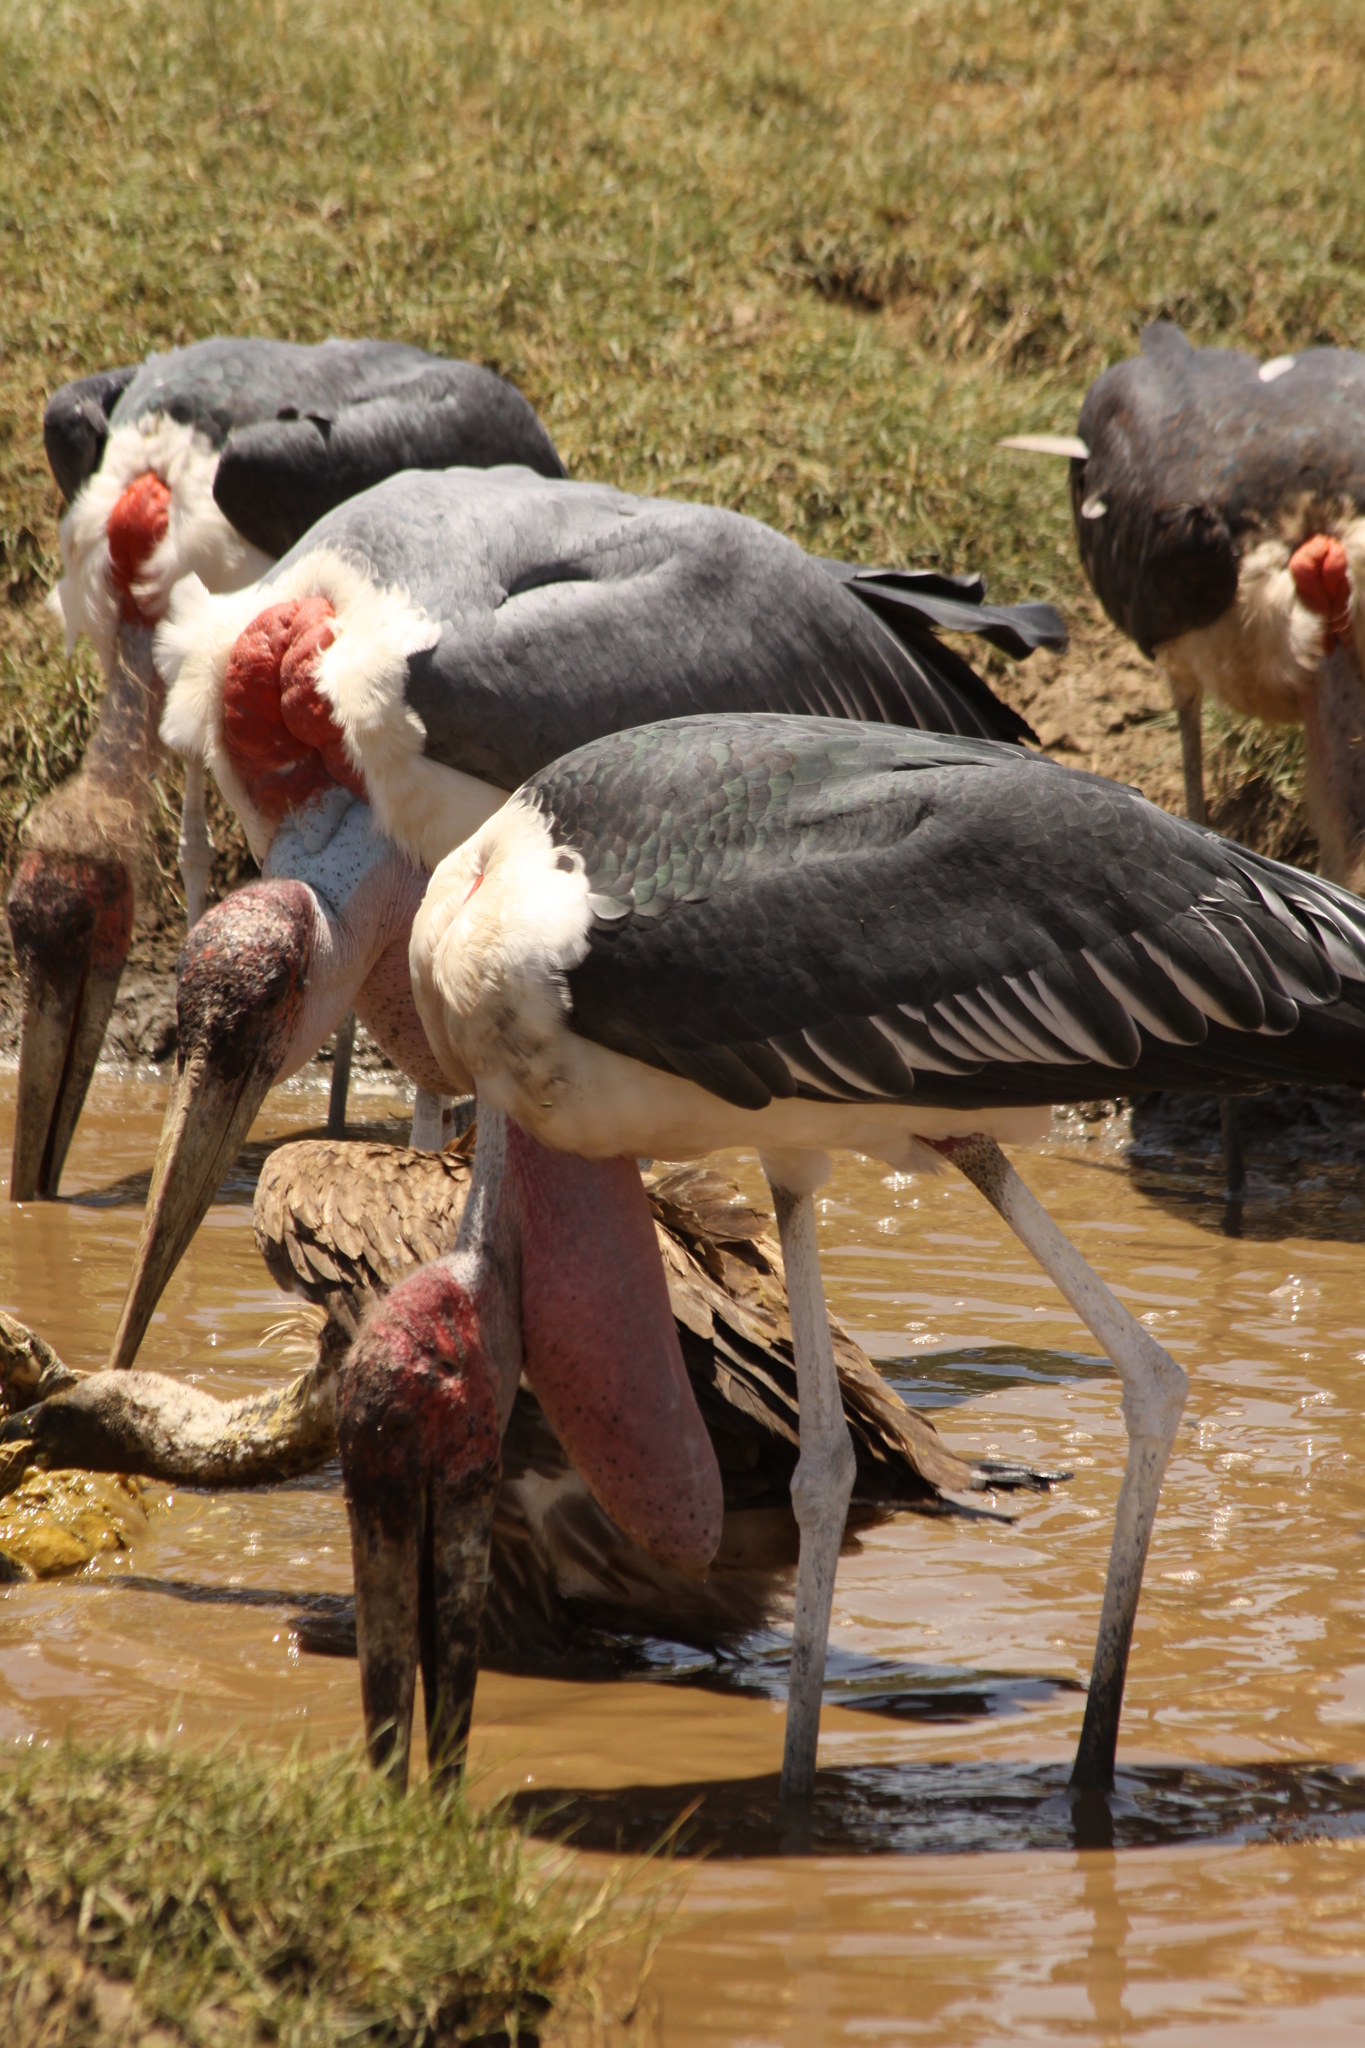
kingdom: Animalia
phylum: Chordata
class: Aves
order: Ciconiiformes
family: Ciconiidae
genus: Leptoptilos
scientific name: Leptoptilos crumenifer
